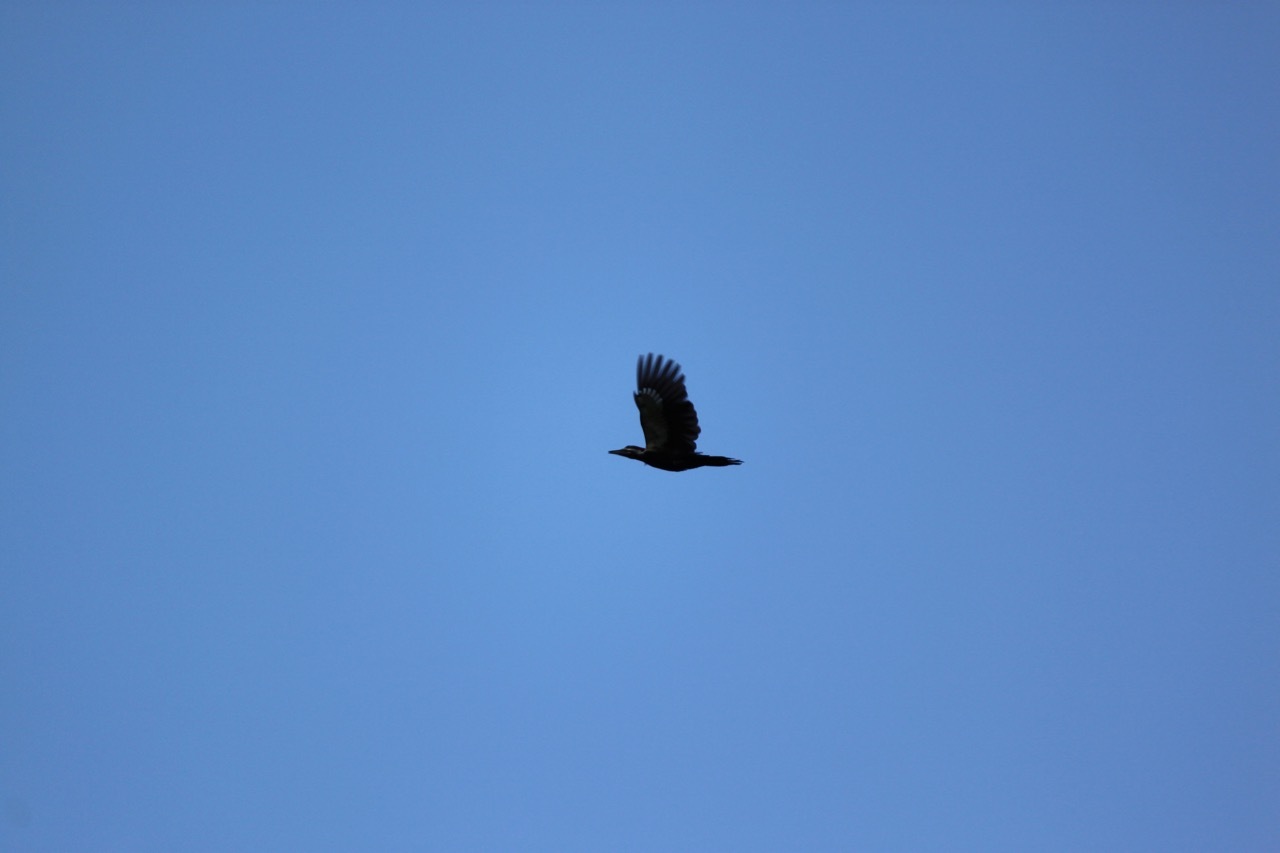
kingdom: Animalia
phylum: Chordata
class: Aves
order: Piciformes
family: Picidae
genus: Dryocopus
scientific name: Dryocopus pileatus
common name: Pileated woodpecker
